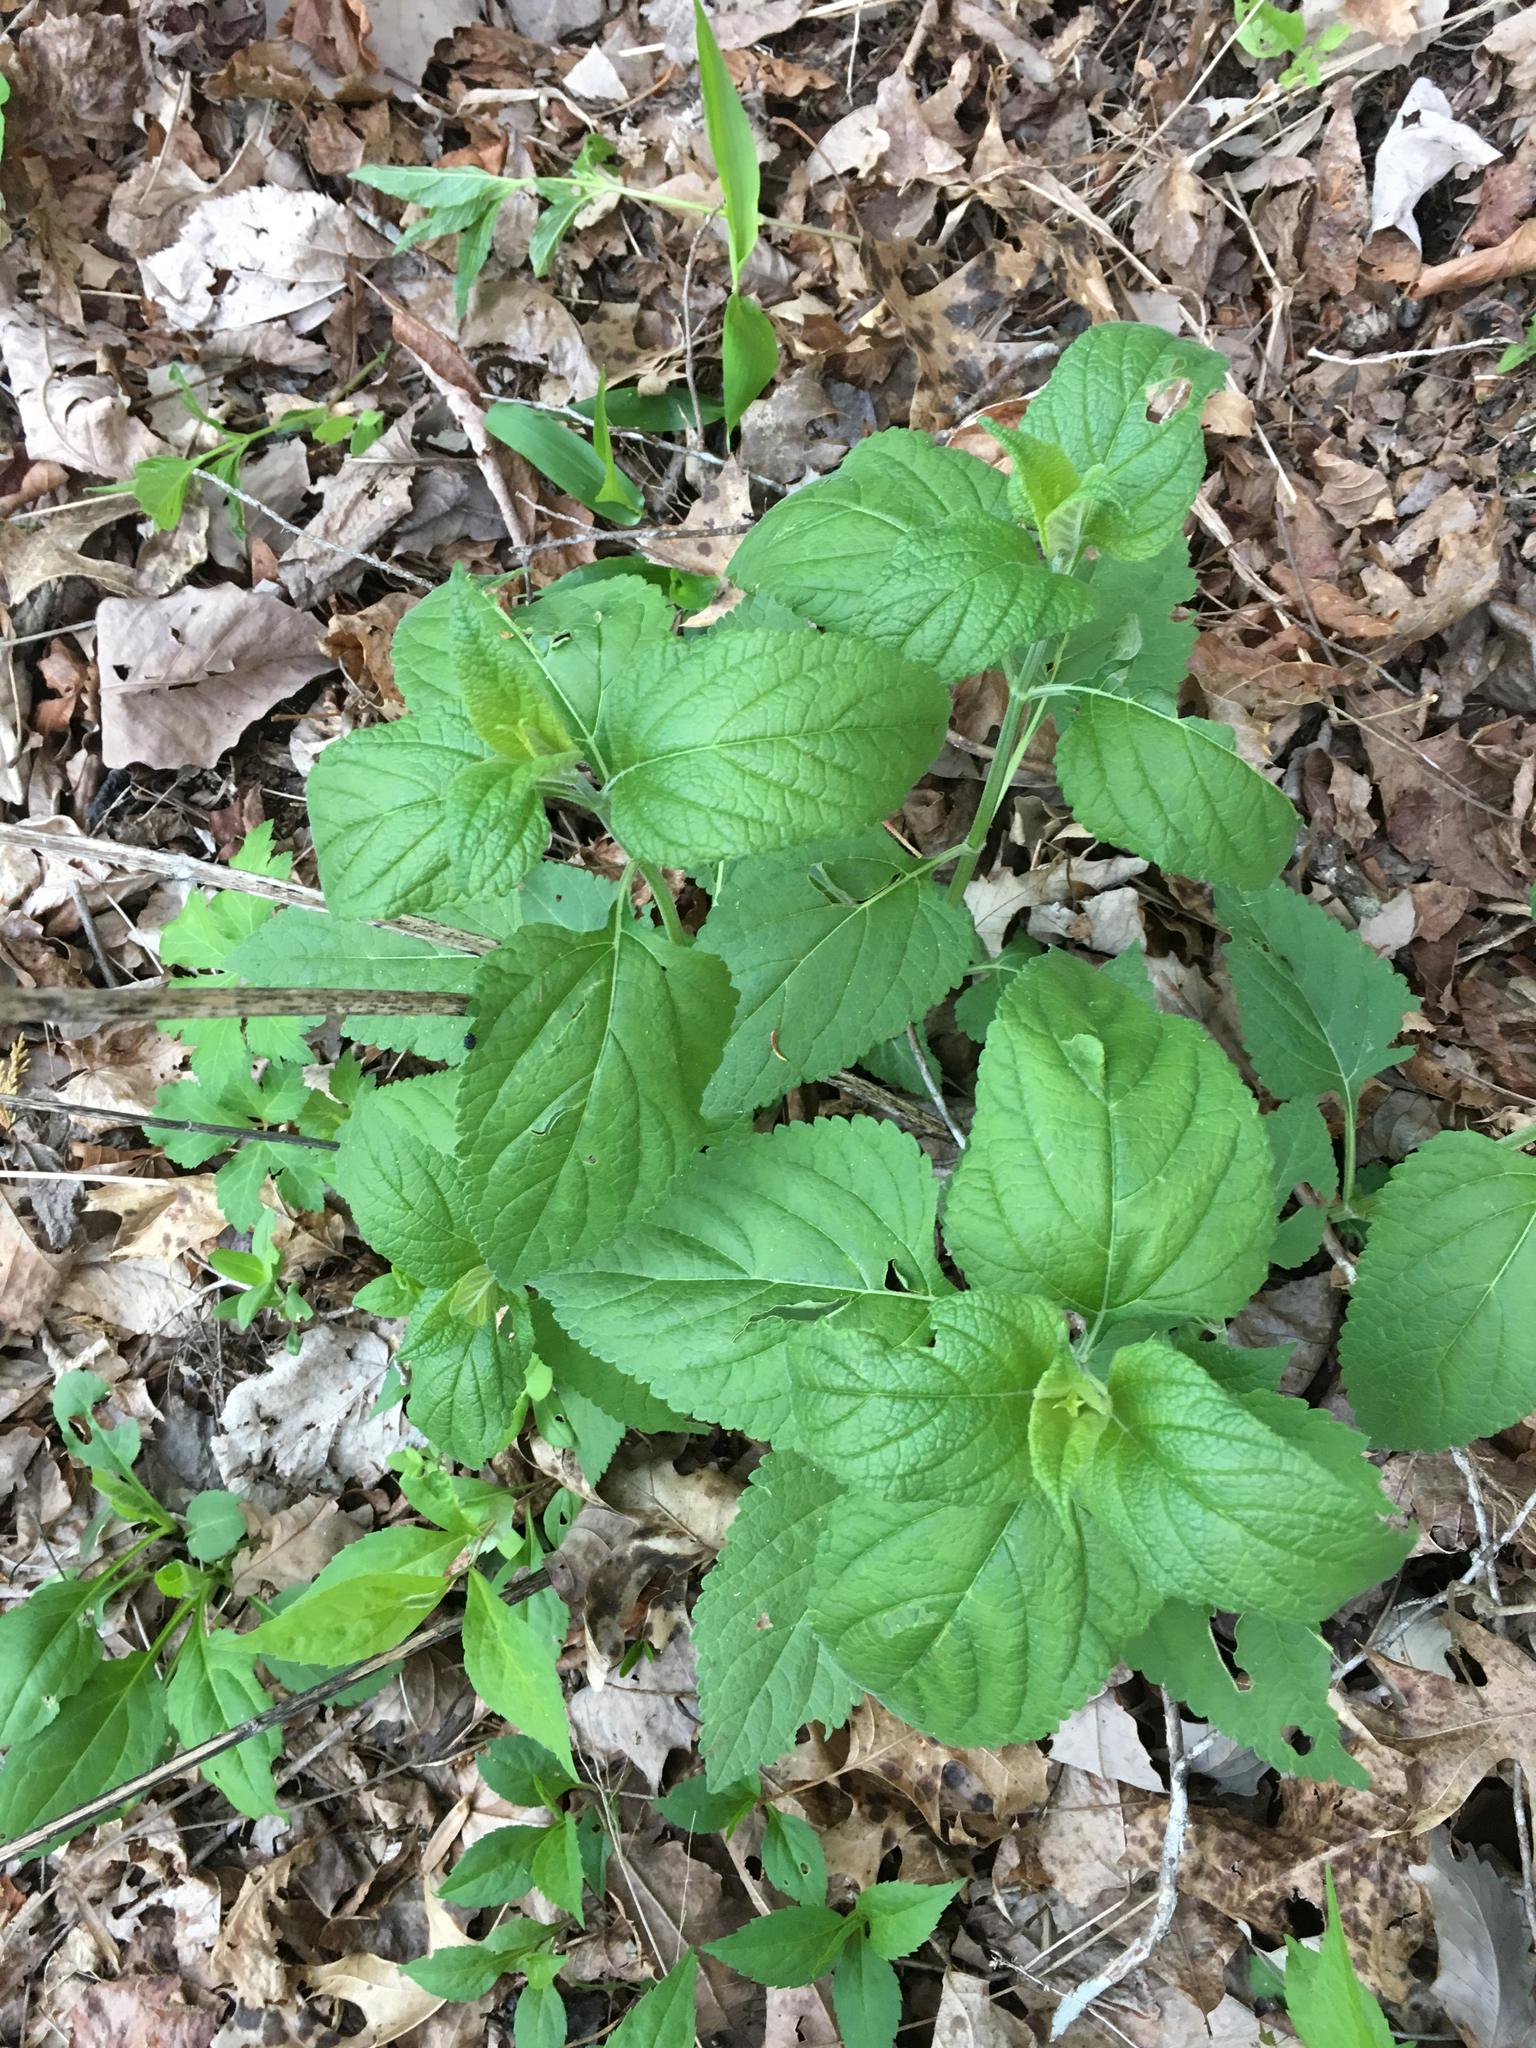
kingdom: Plantae
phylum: Tracheophyta
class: Magnoliopsida
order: Asterales
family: Asteraceae
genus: Melanthera
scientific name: Melanthera nivea
